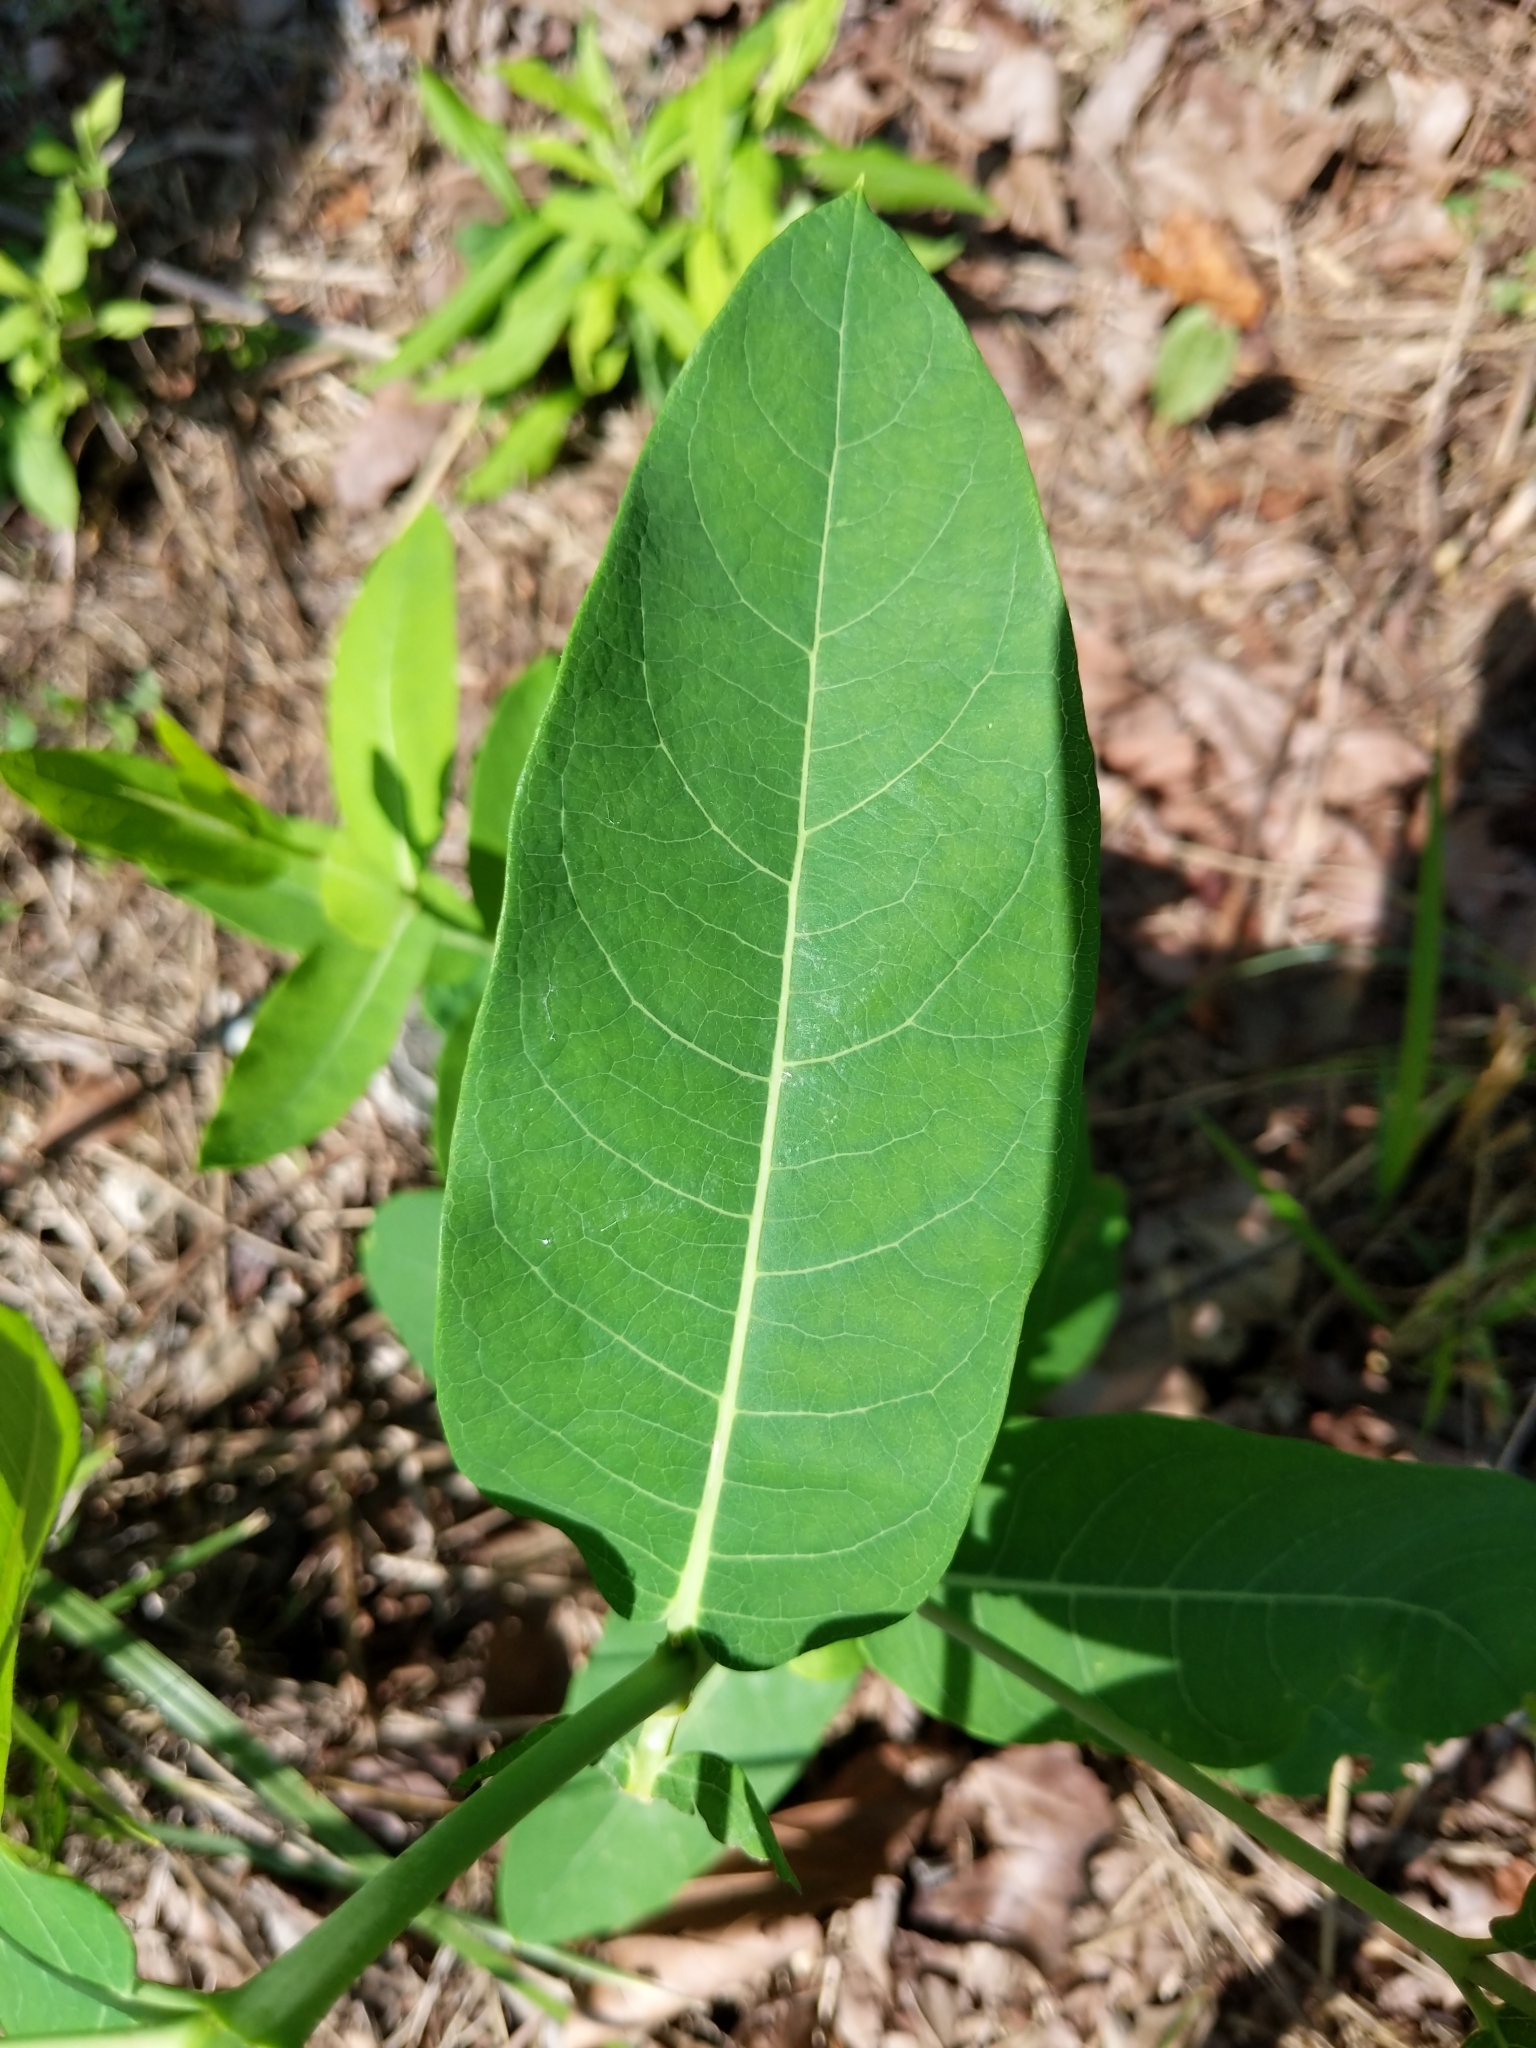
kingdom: Plantae
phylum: Tracheophyta
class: Magnoliopsida
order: Gentianales
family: Apocynaceae
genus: Apocynum
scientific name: Apocynum cannabinum
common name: Hemp dogbane
